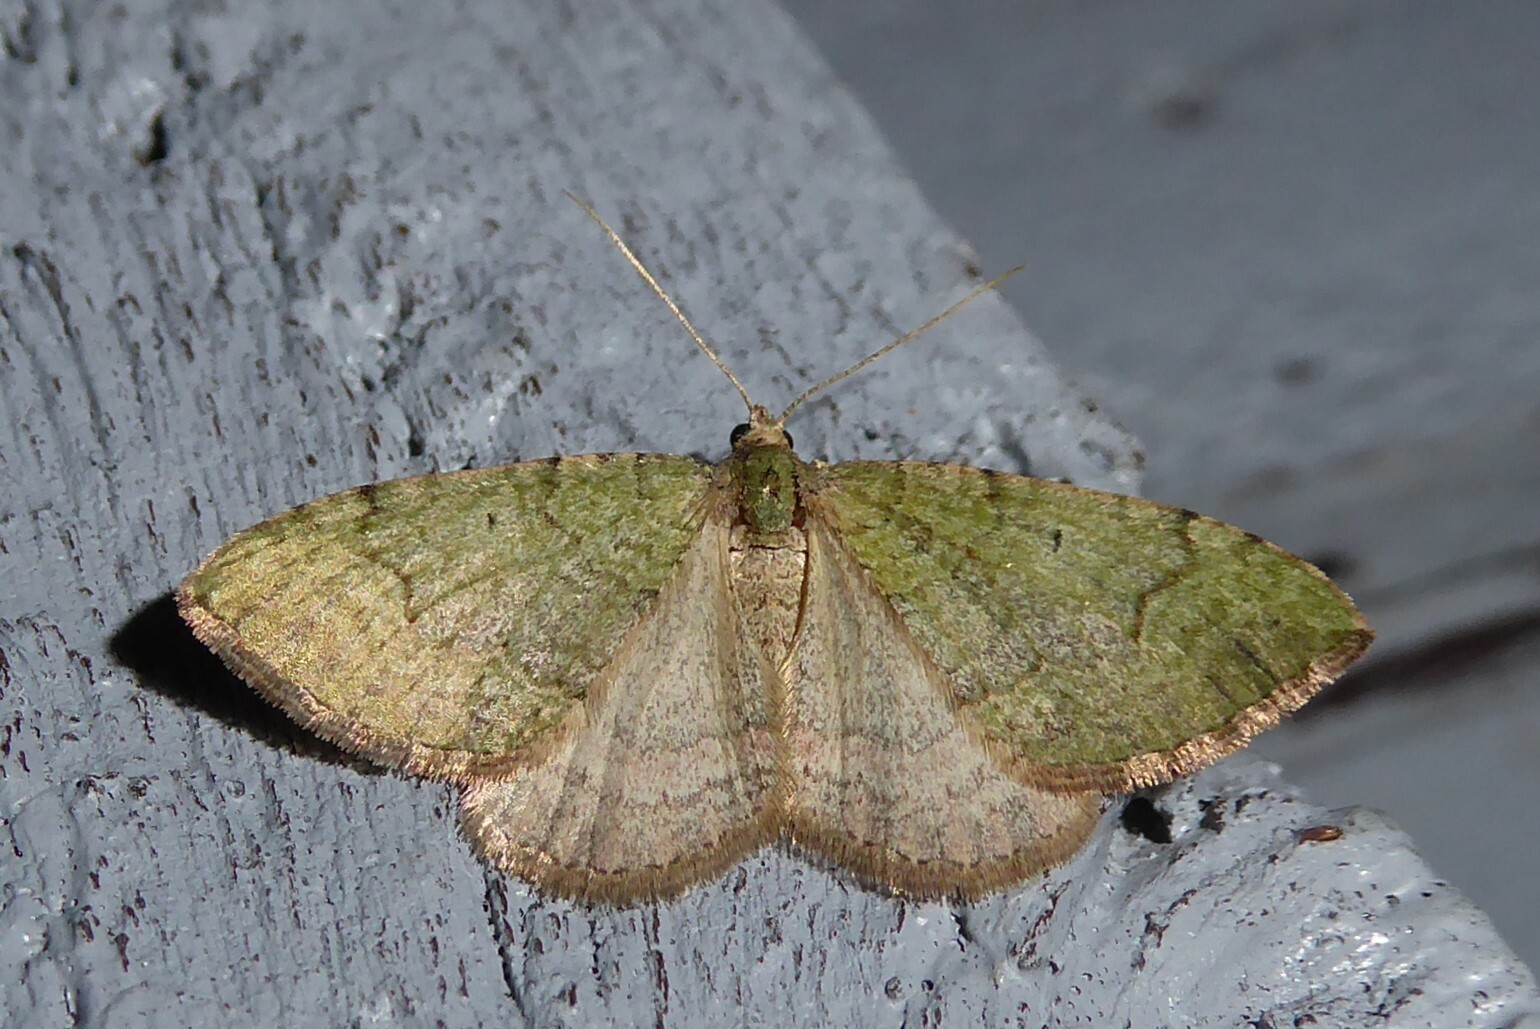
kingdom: Animalia
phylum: Arthropoda
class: Insecta
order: Lepidoptera
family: Geometridae
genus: Epyaxa
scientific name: Epyaxa rosearia
